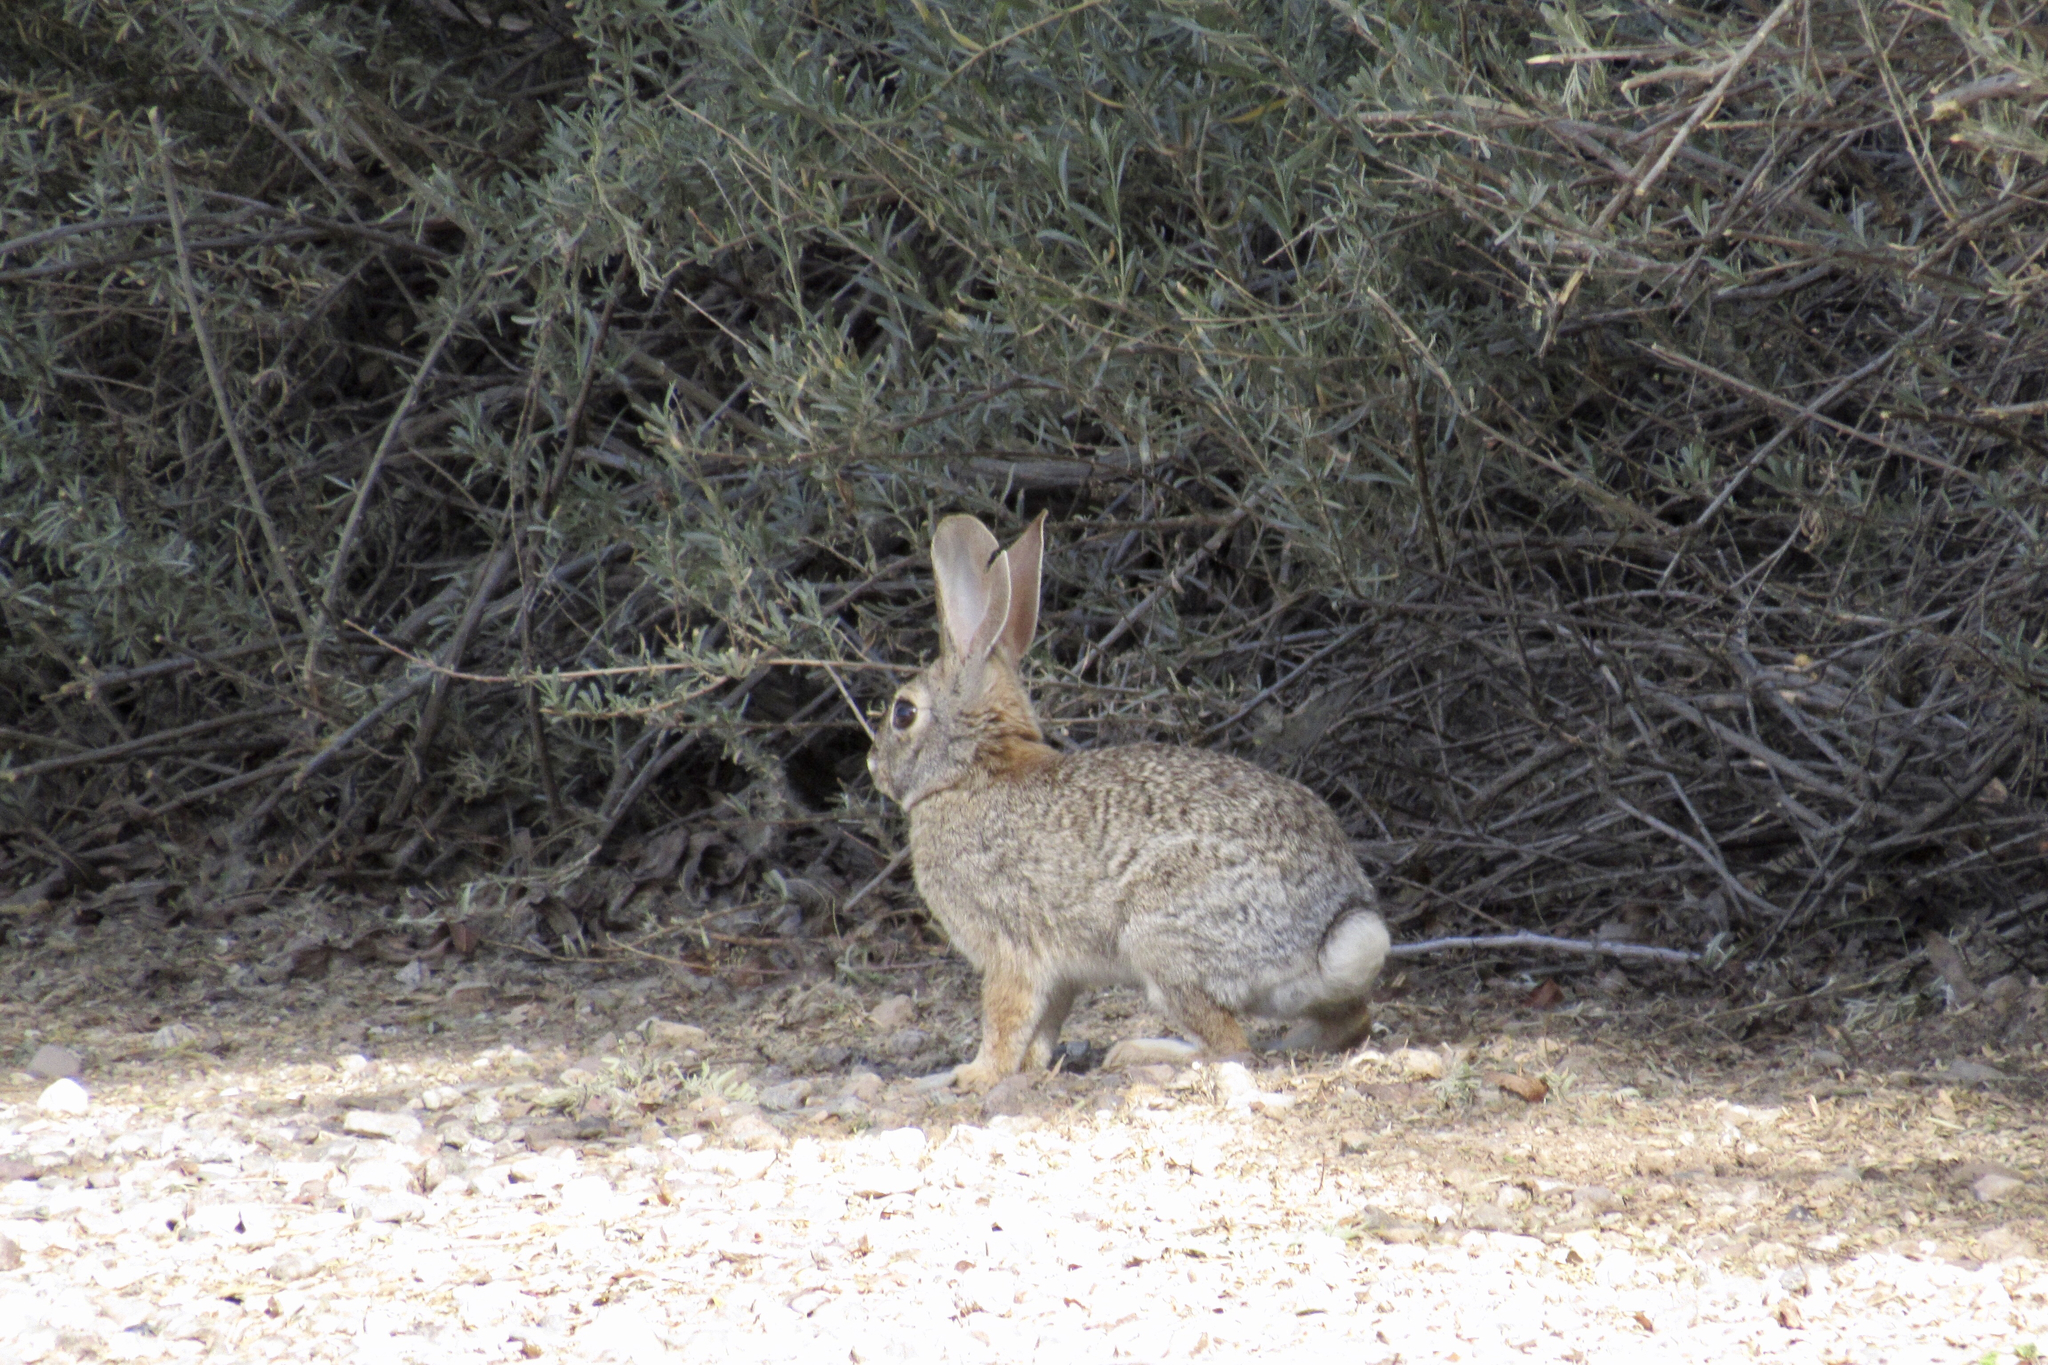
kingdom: Animalia
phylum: Chordata
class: Mammalia
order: Lagomorpha
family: Leporidae
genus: Sylvilagus
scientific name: Sylvilagus audubonii
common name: Desert cottontail
